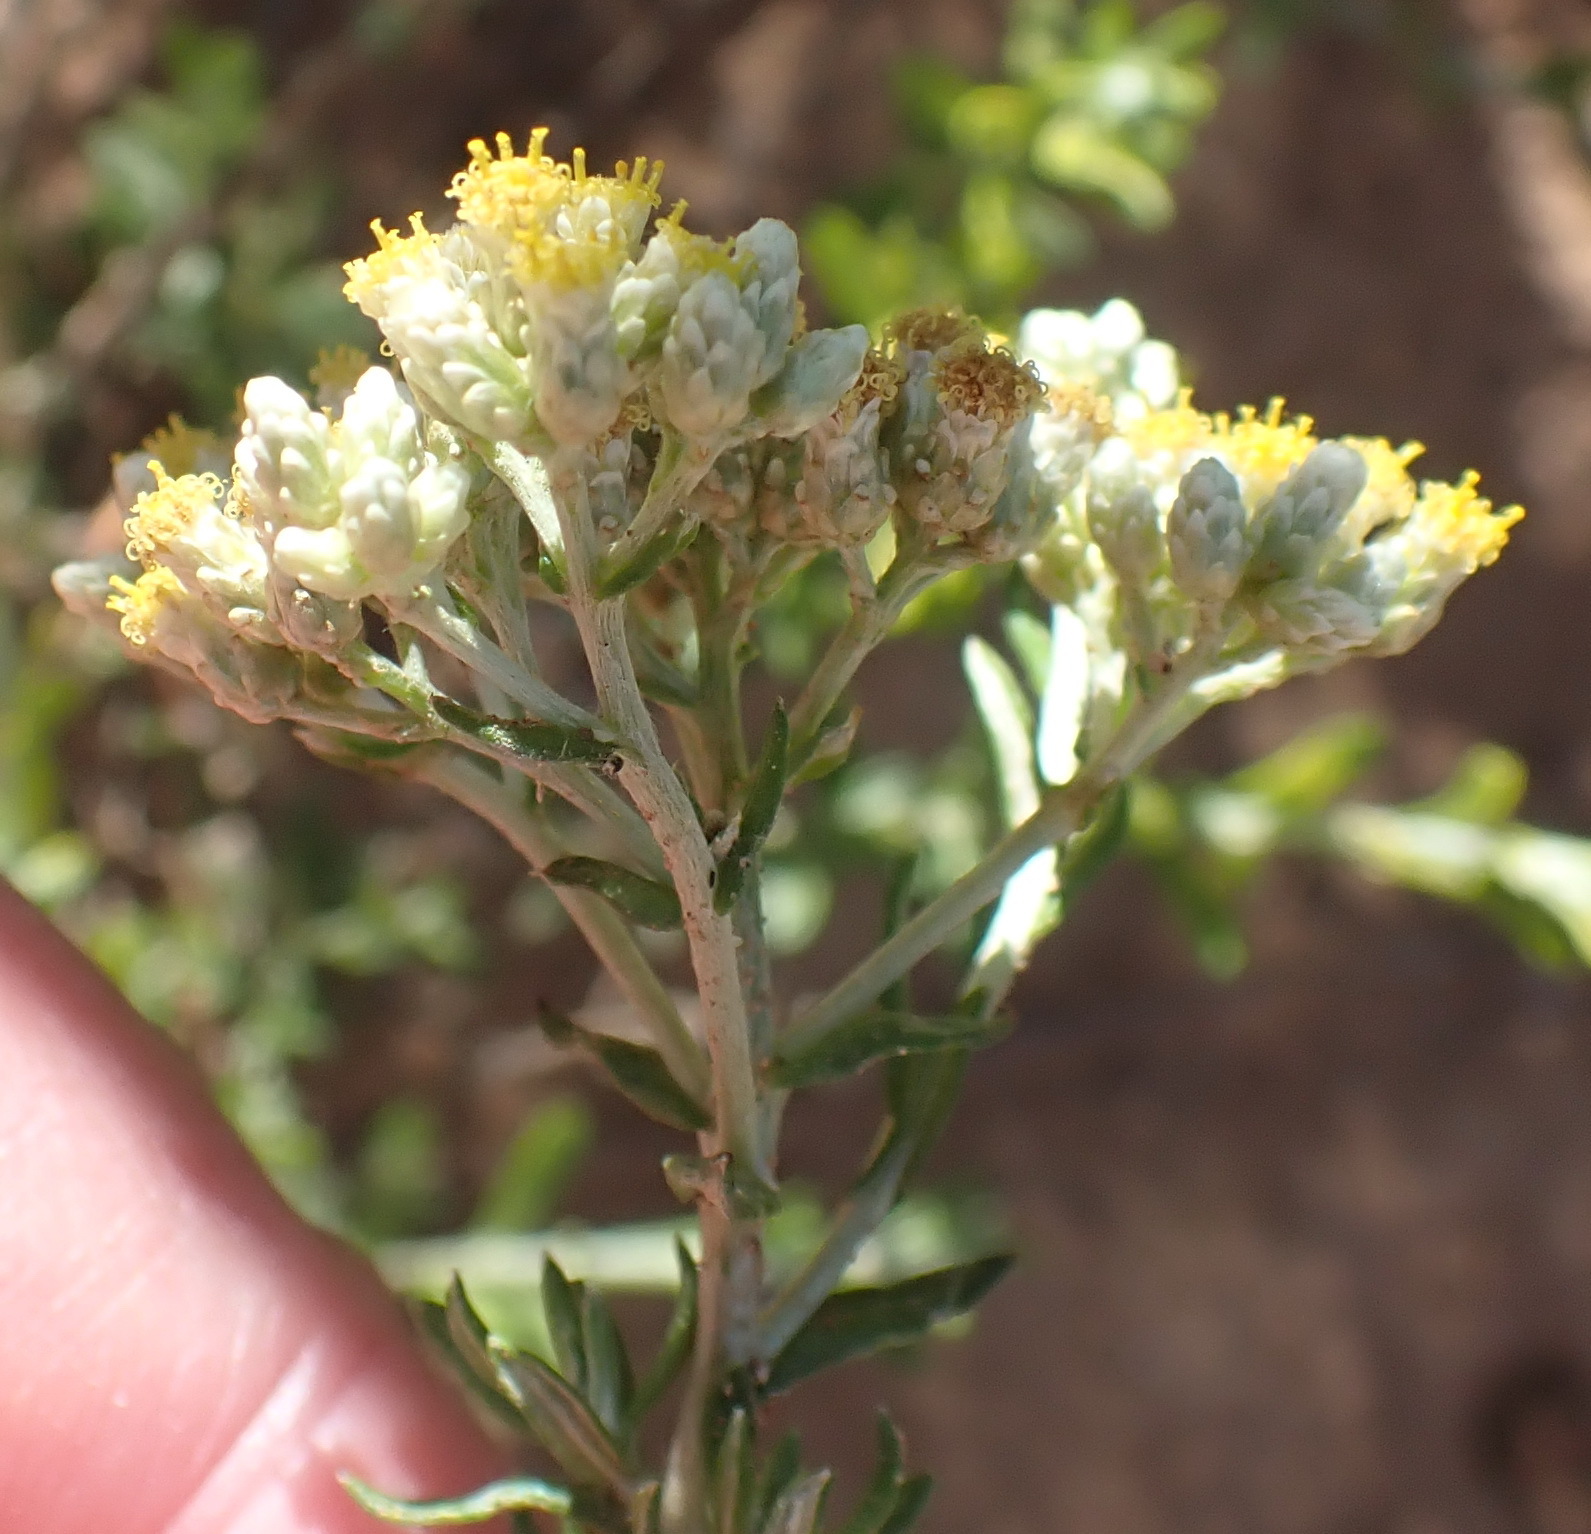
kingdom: Plantae
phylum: Tracheophyta
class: Magnoliopsida
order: Asterales
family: Asteraceae
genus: Helichrysum
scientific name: Helichrysum rosum
